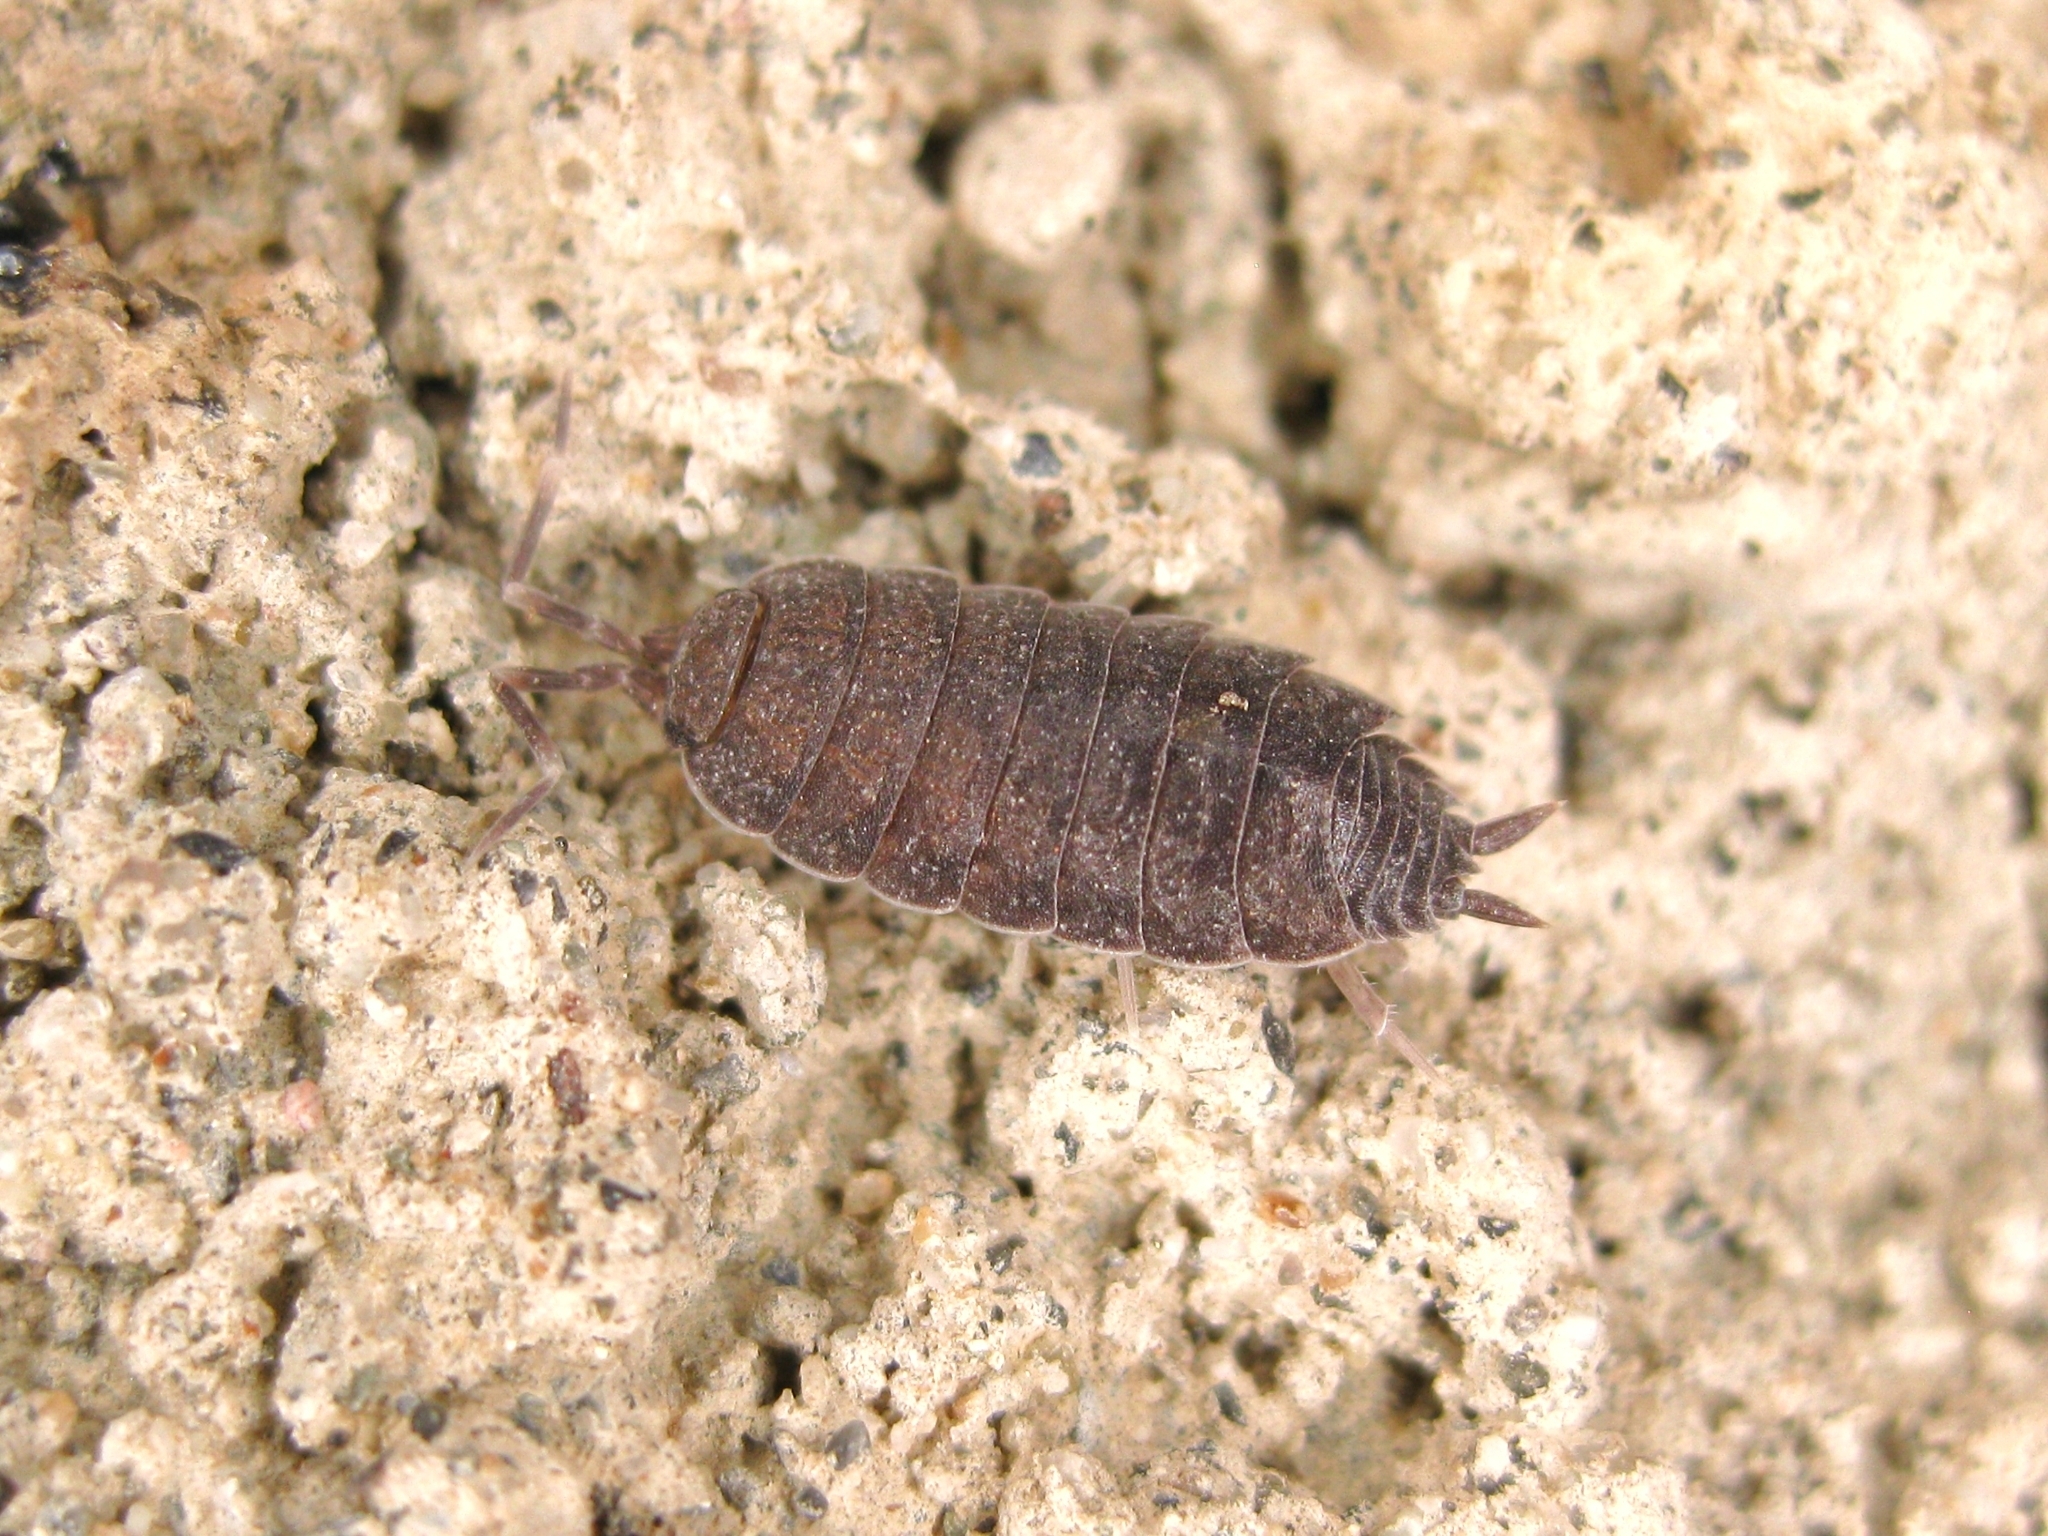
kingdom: Animalia
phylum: Arthropoda
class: Malacostraca
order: Isopoda
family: Porcellionidae
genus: Porcellionides
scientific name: Porcellionides
